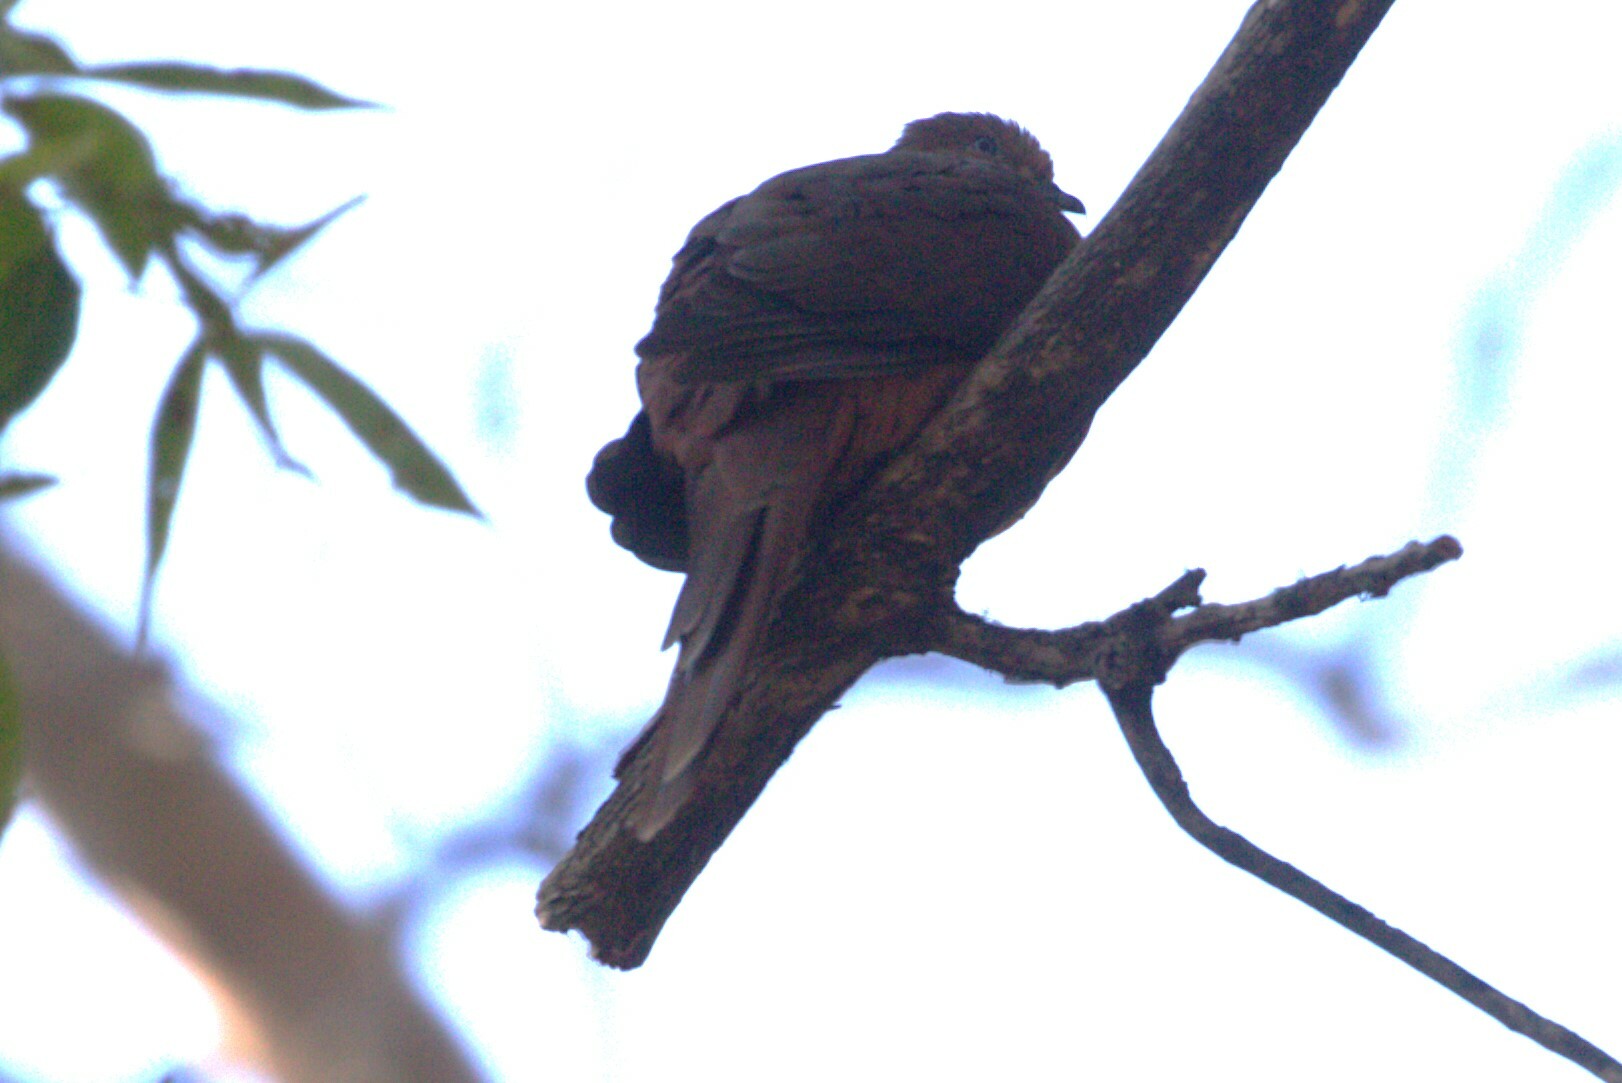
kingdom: Animalia
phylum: Chordata
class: Aves
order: Columbiformes
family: Columbidae
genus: Macropygia
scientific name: Macropygia phasianella
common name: Brown cuckoo-dove
